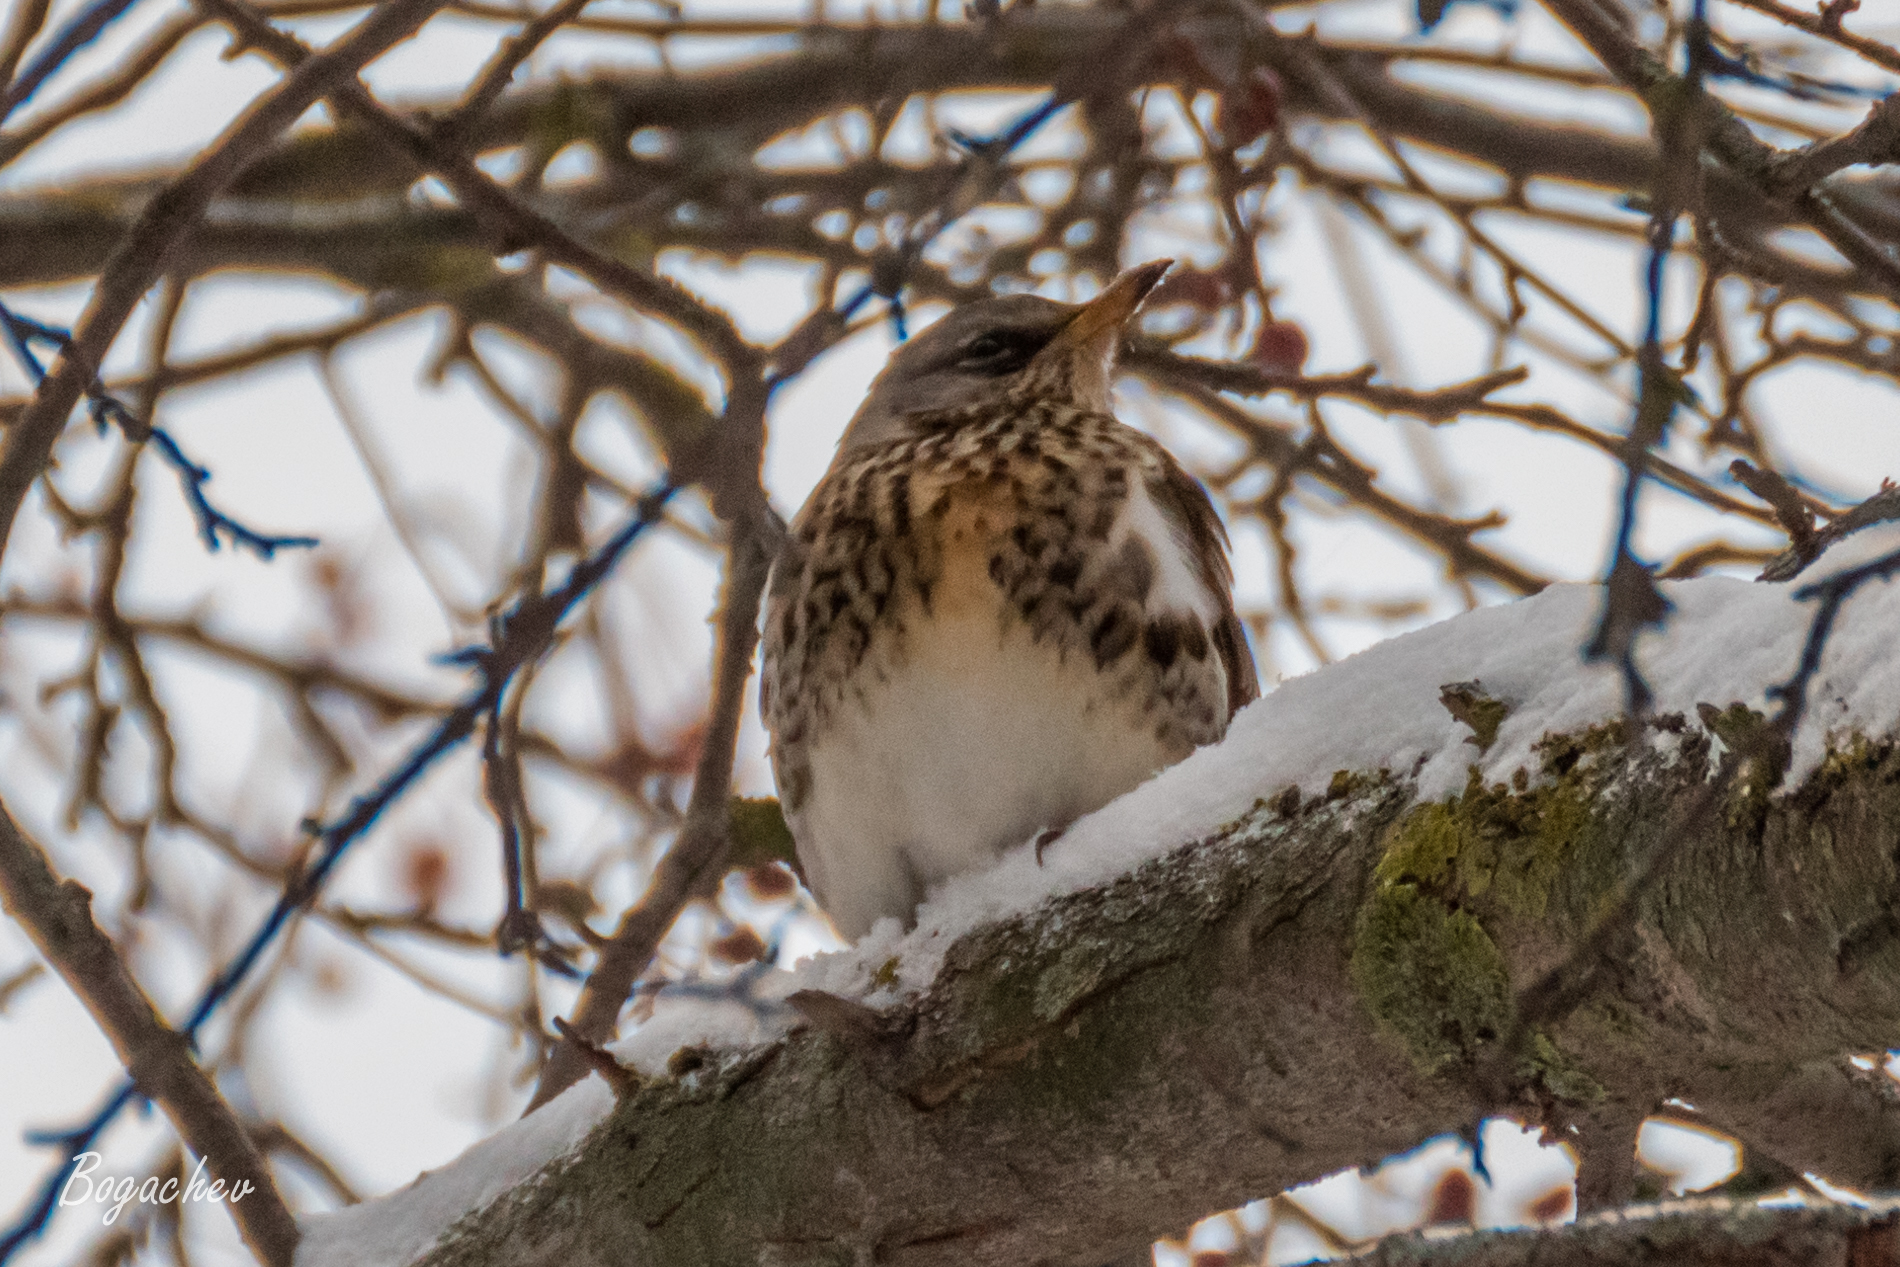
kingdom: Animalia
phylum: Chordata
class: Aves
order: Passeriformes
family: Turdidae
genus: Turdus
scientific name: Turdus pilaris
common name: Fieldfare
